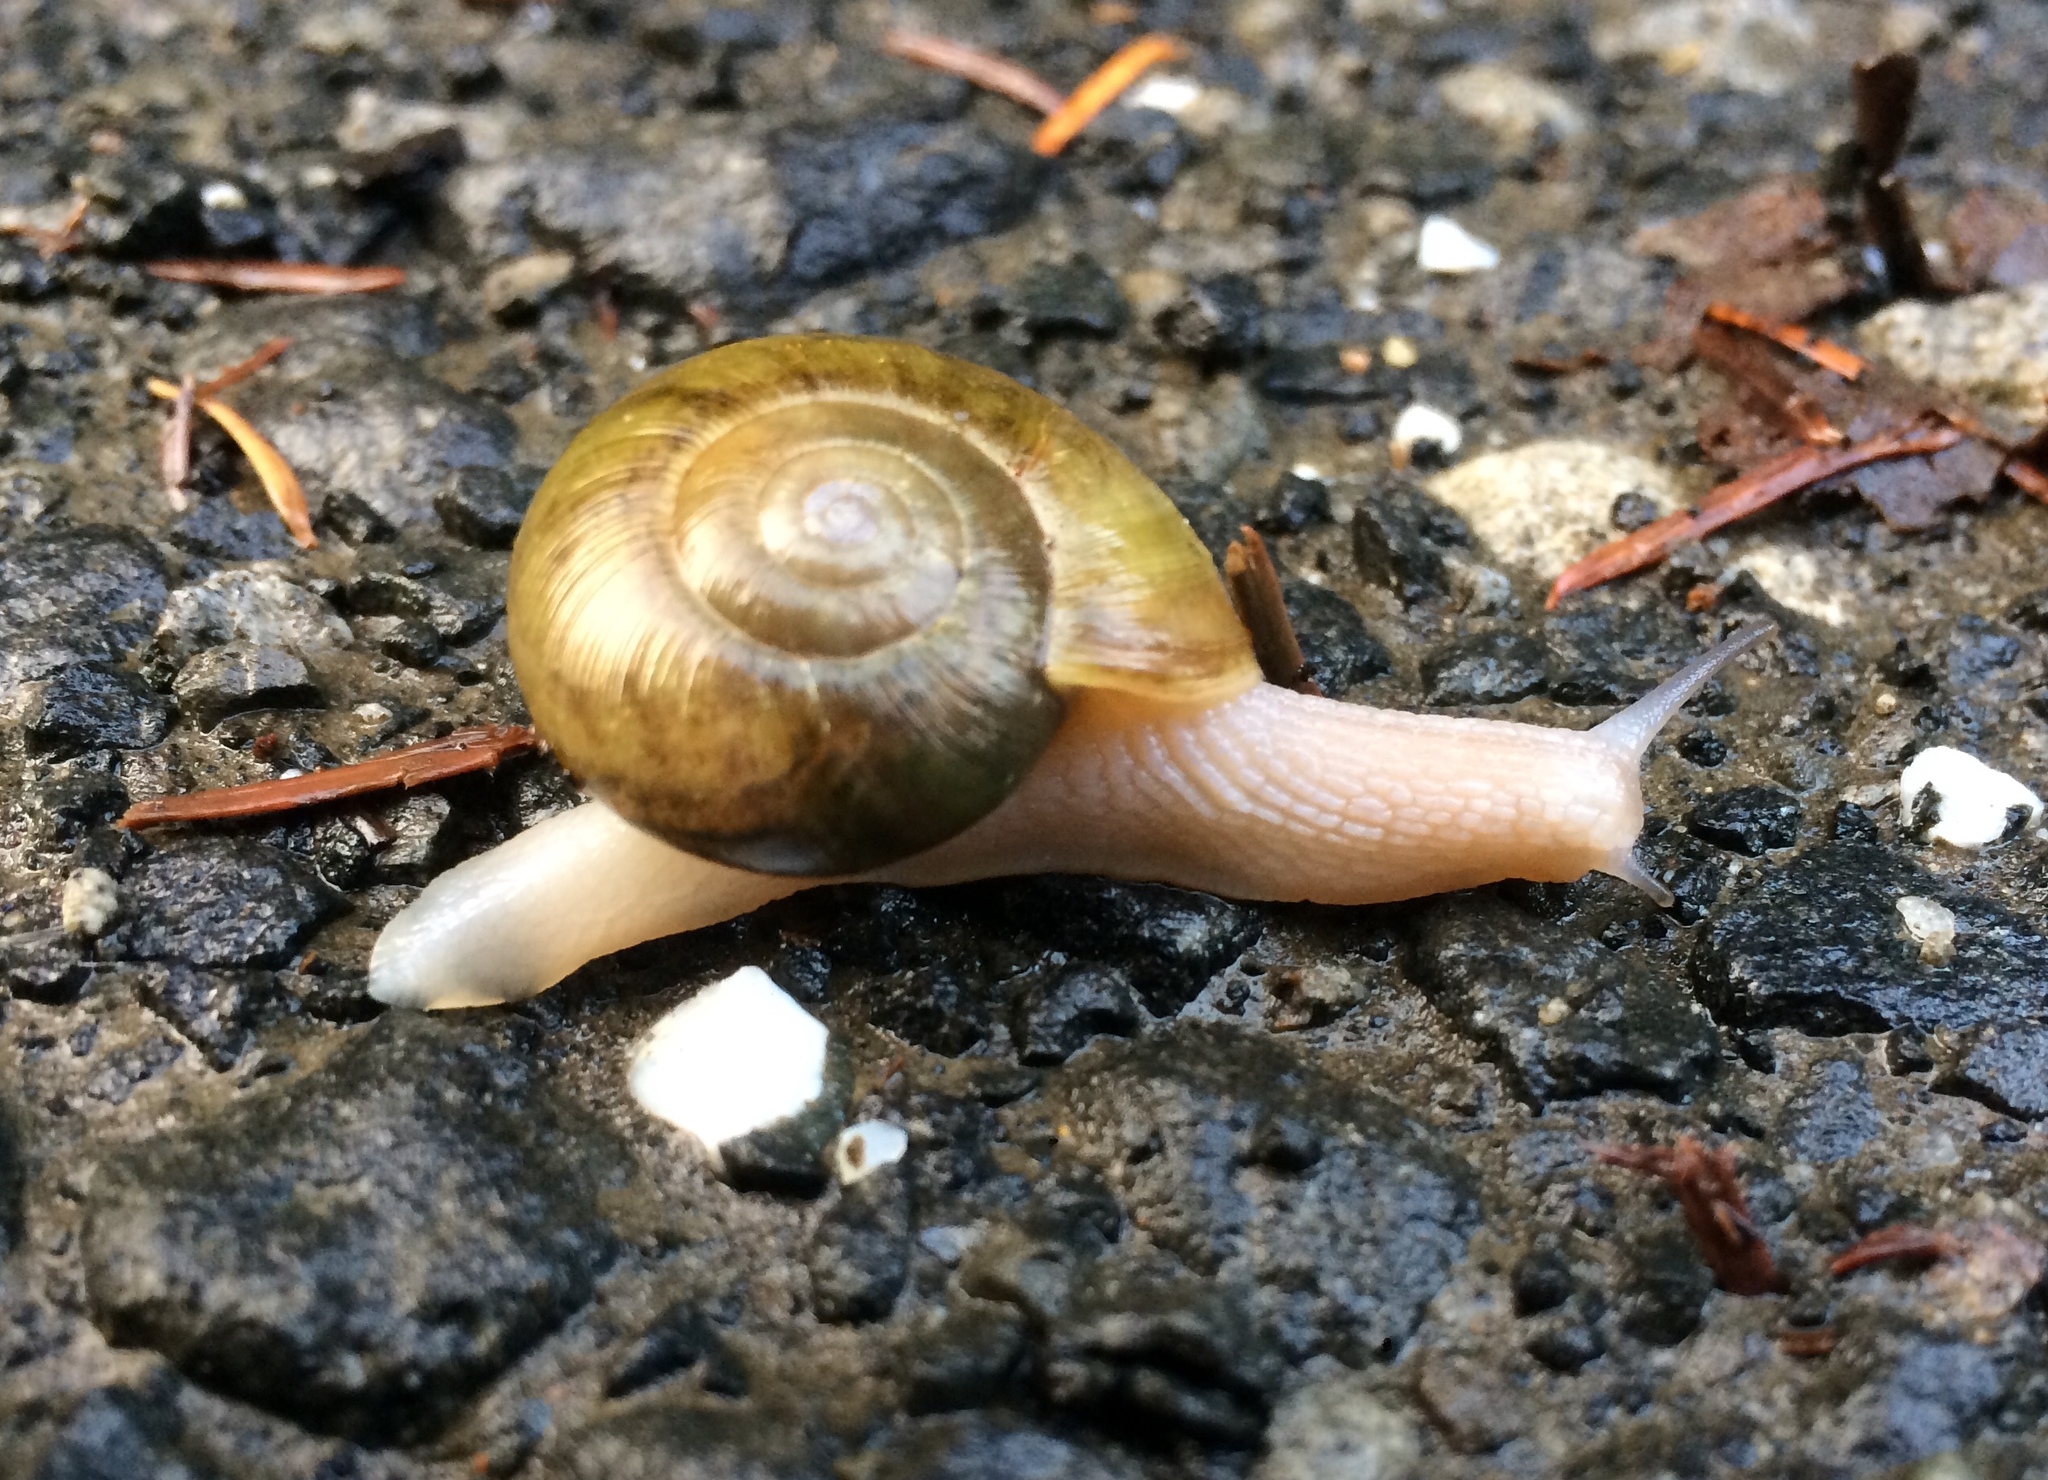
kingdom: Animalia
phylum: Mollusca
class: Gastropoda
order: Stylommatophora
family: Haplotrematidae
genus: Haplotrema
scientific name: Haplotrema vancouverense
